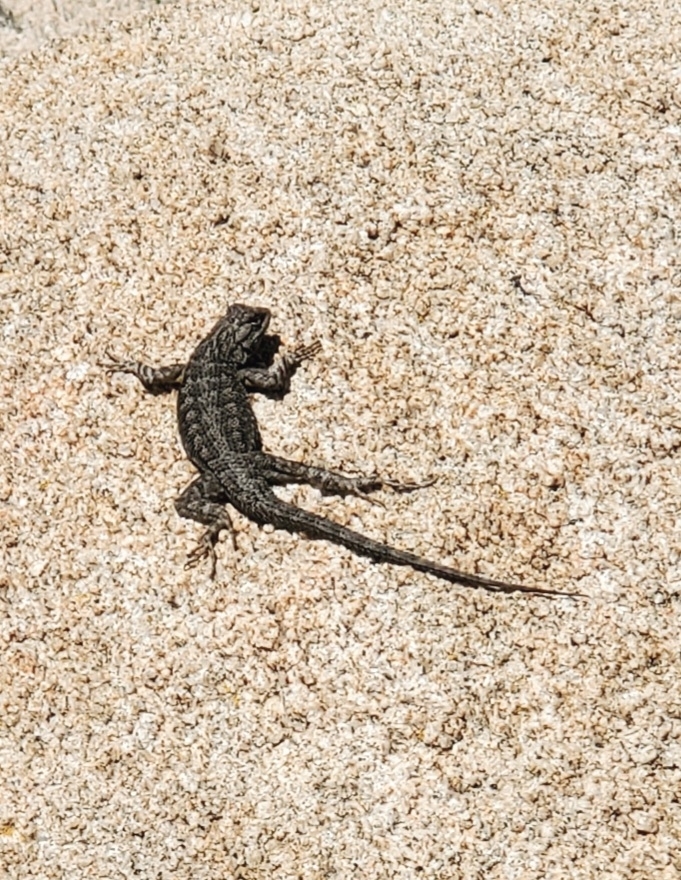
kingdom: Animalia
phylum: Chordata
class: Squamata
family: Phrynosomatidae
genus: Sceloporus
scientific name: Sceloporus occidentalis
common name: Western fence lizard
